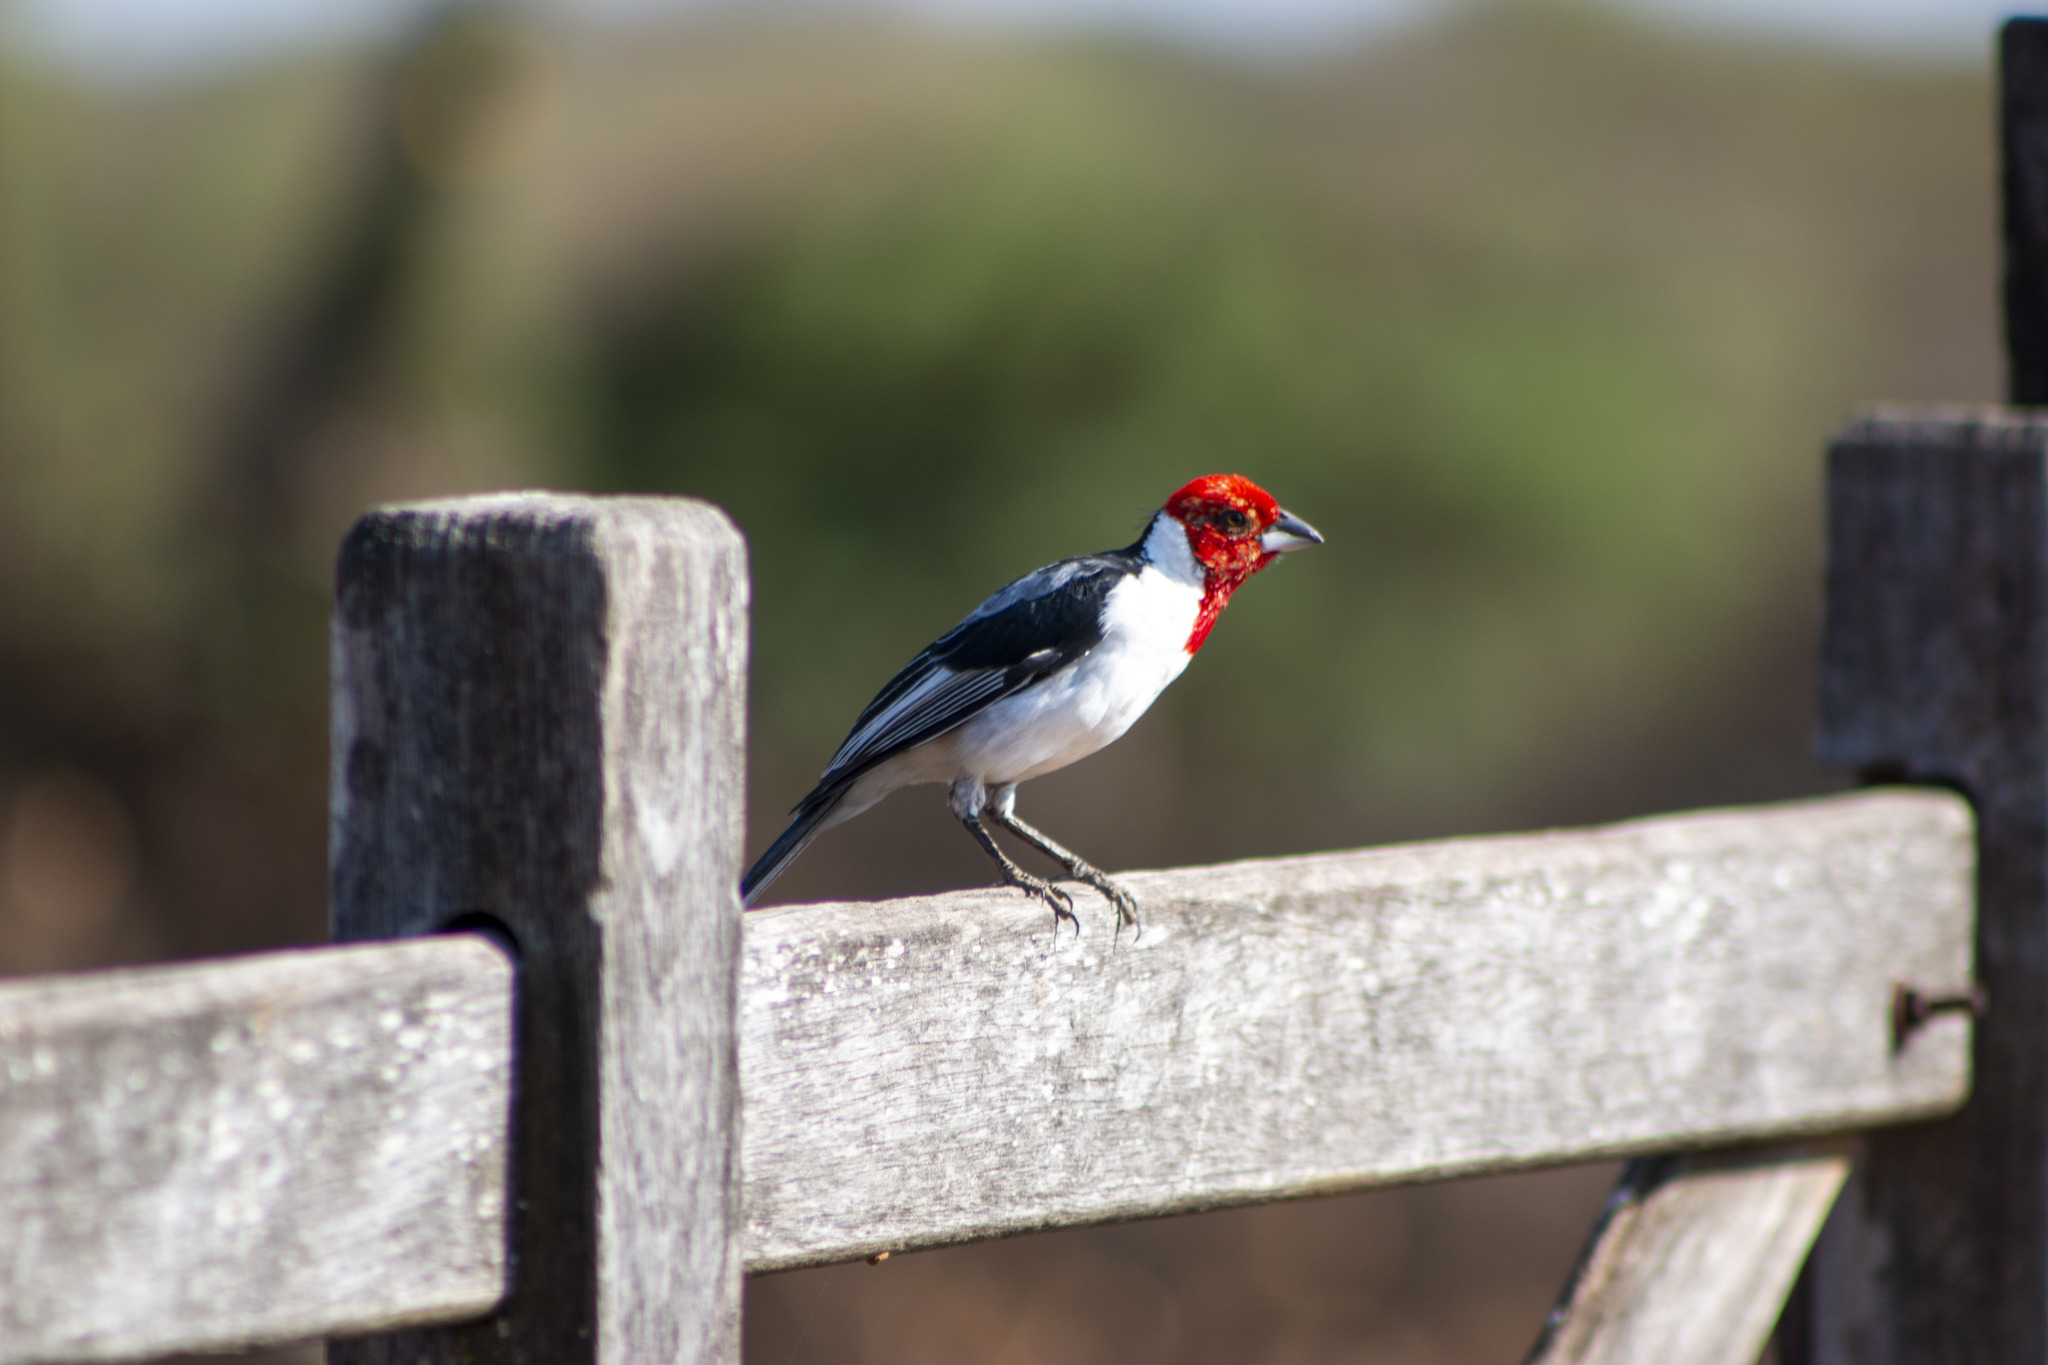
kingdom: Animalia
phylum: Chordata
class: Aves
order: Passeriformes
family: Thraupidae
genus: Paroaria
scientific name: Paroaria dominicana
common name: Red-cowled cardinal
